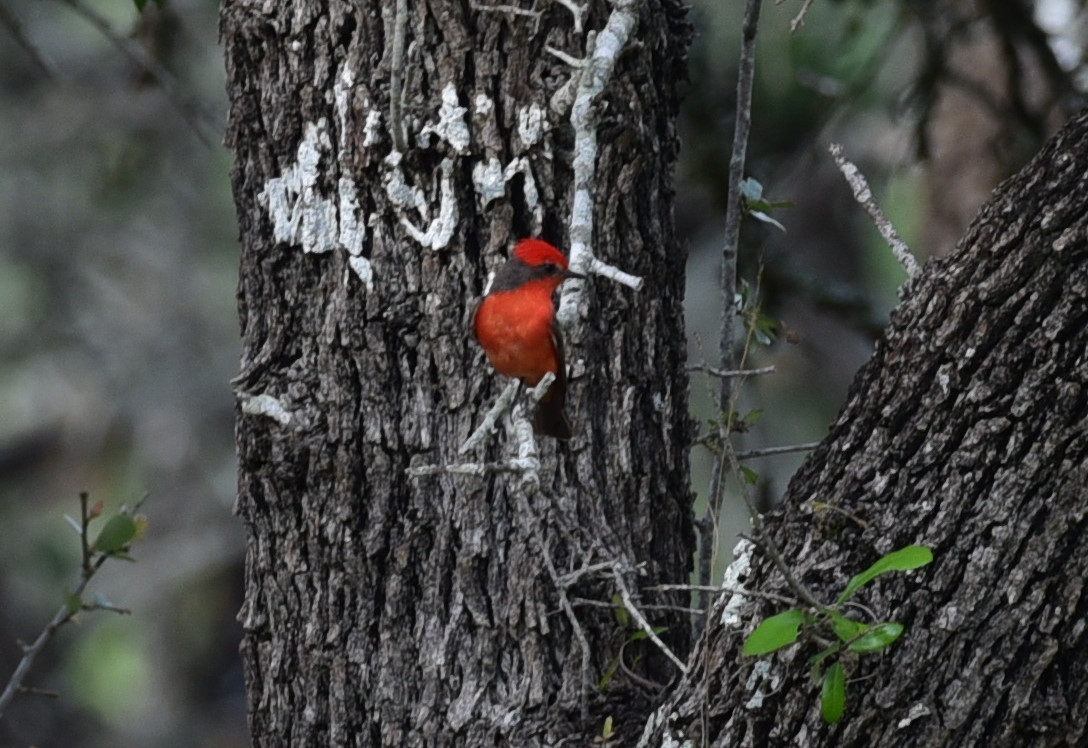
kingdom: Animalia
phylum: Chordata
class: Aves
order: Passeriformes
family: Tyrannidae
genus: Pyrocephalus
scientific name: Pyrocephalus rubinus
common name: Vermilion flycatcher
